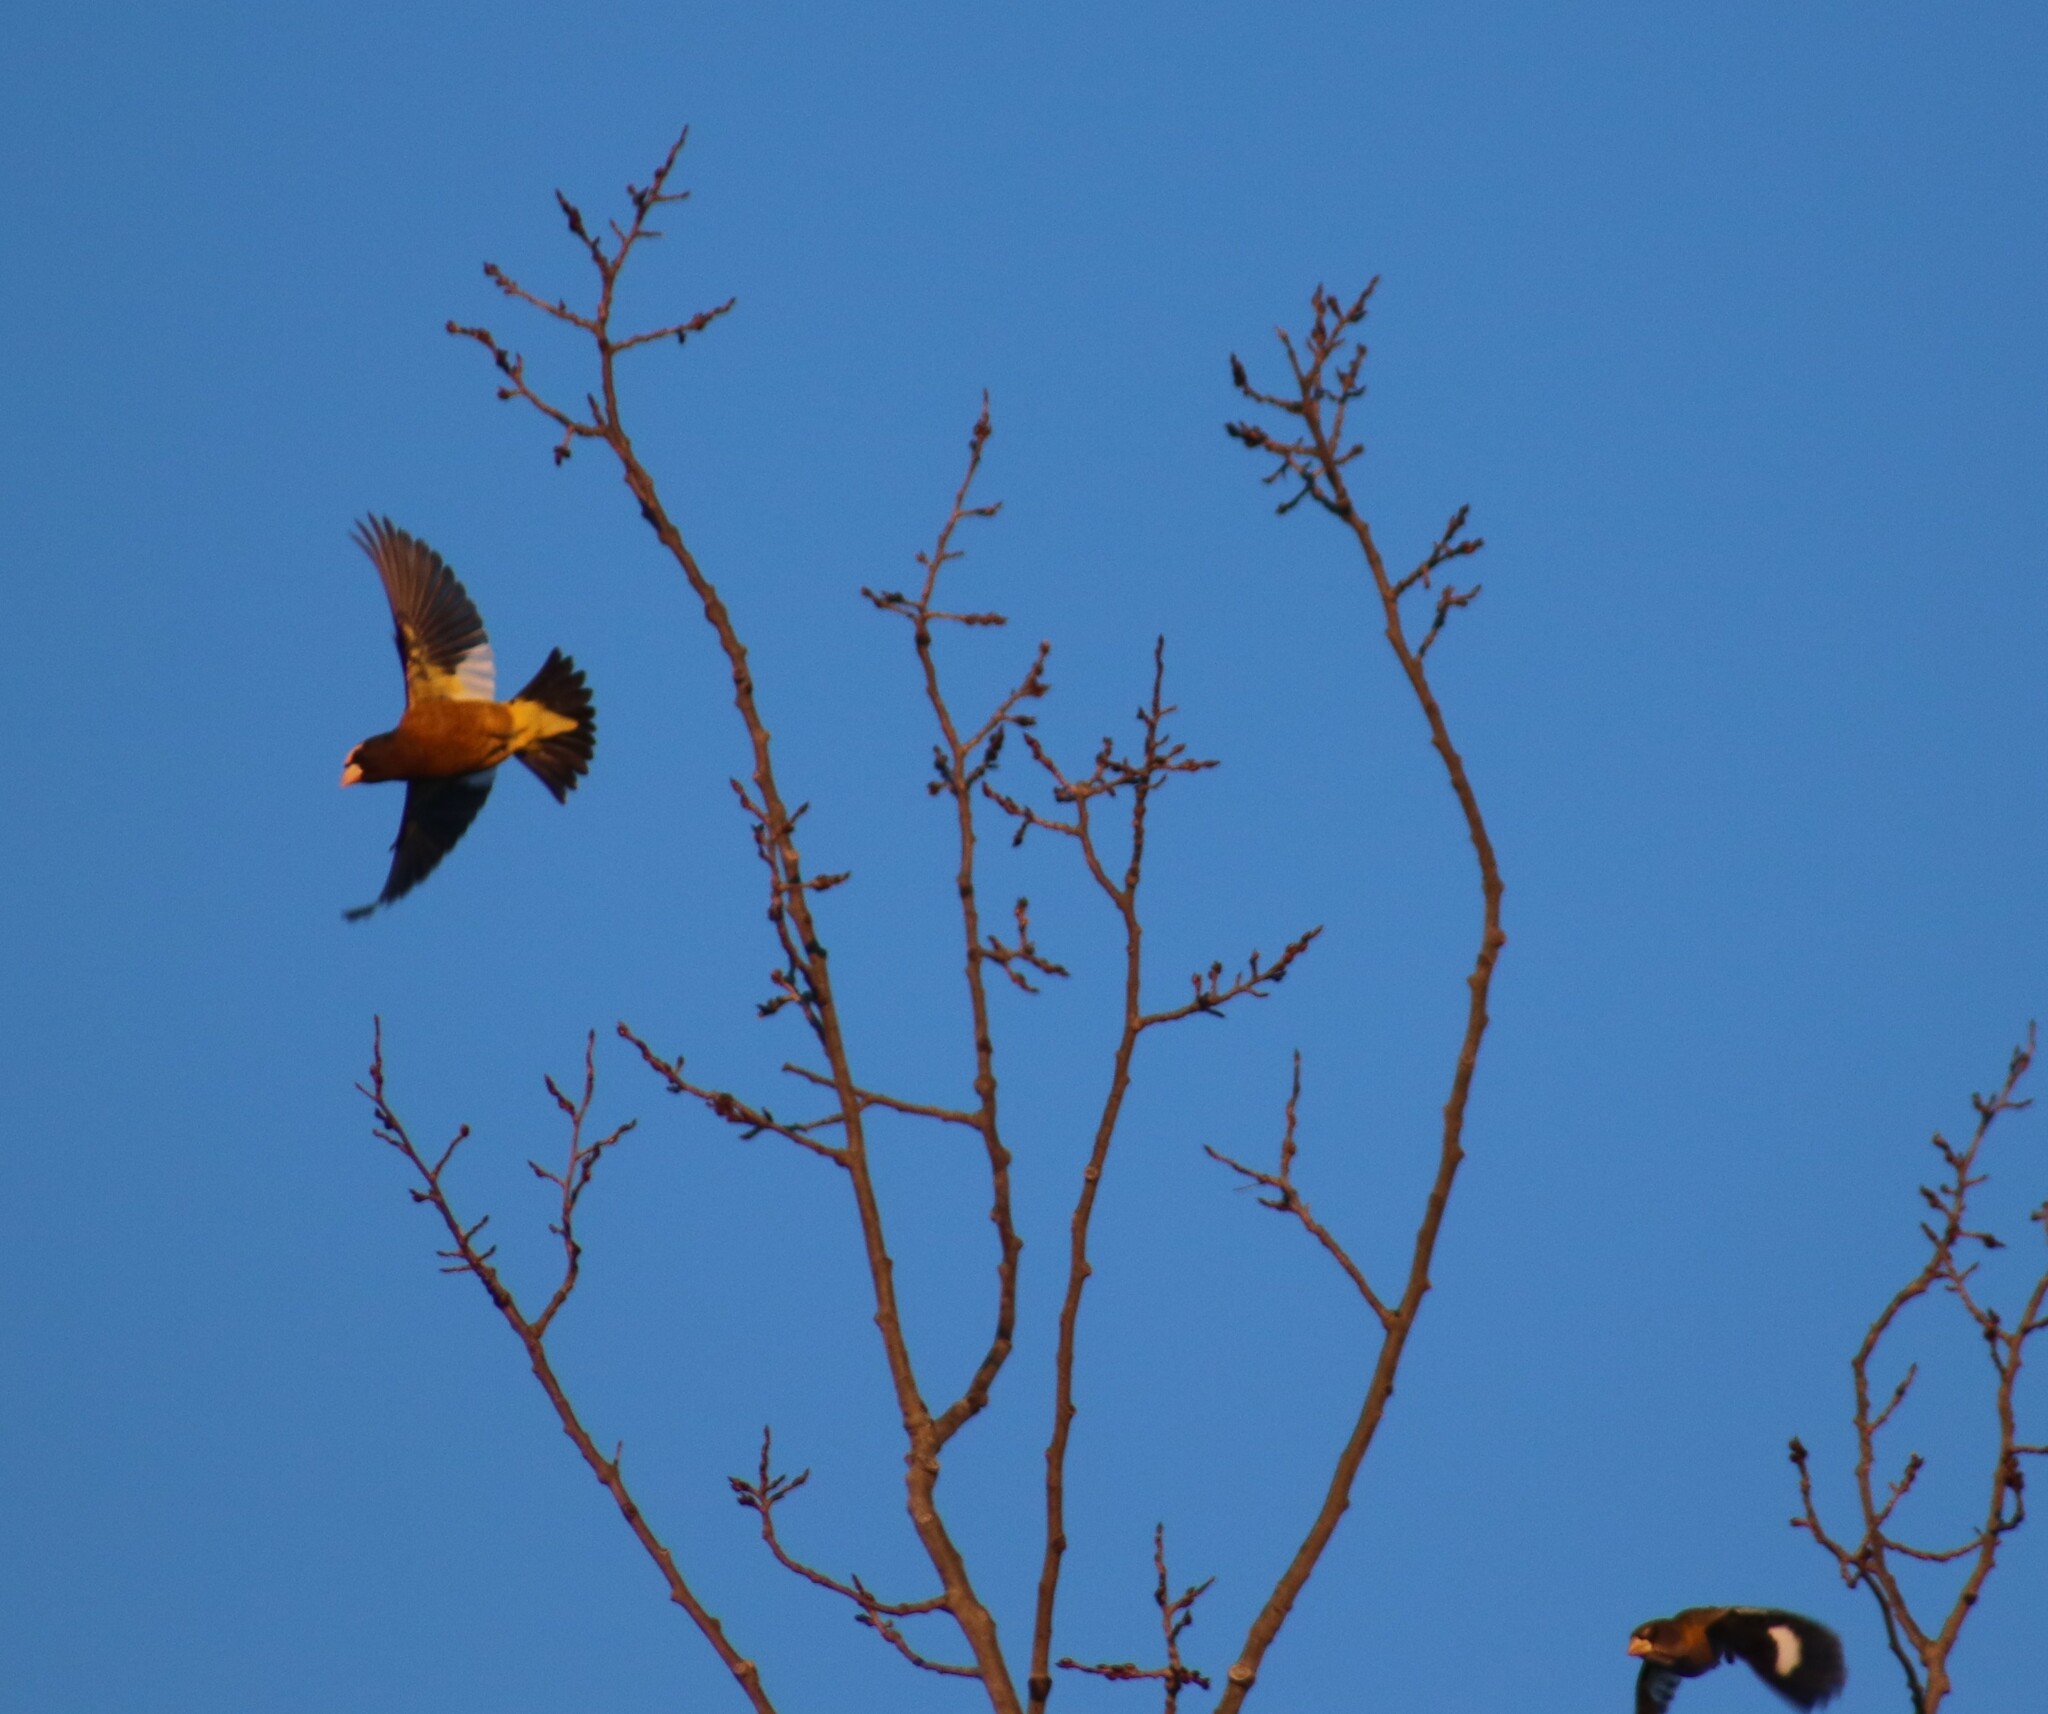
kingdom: Animalia
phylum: Chordata
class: Aves
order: Passeriformes
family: Fringillidae
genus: Hesperiphona
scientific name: Hesperiphona vespertina
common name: Evening grosbeak
